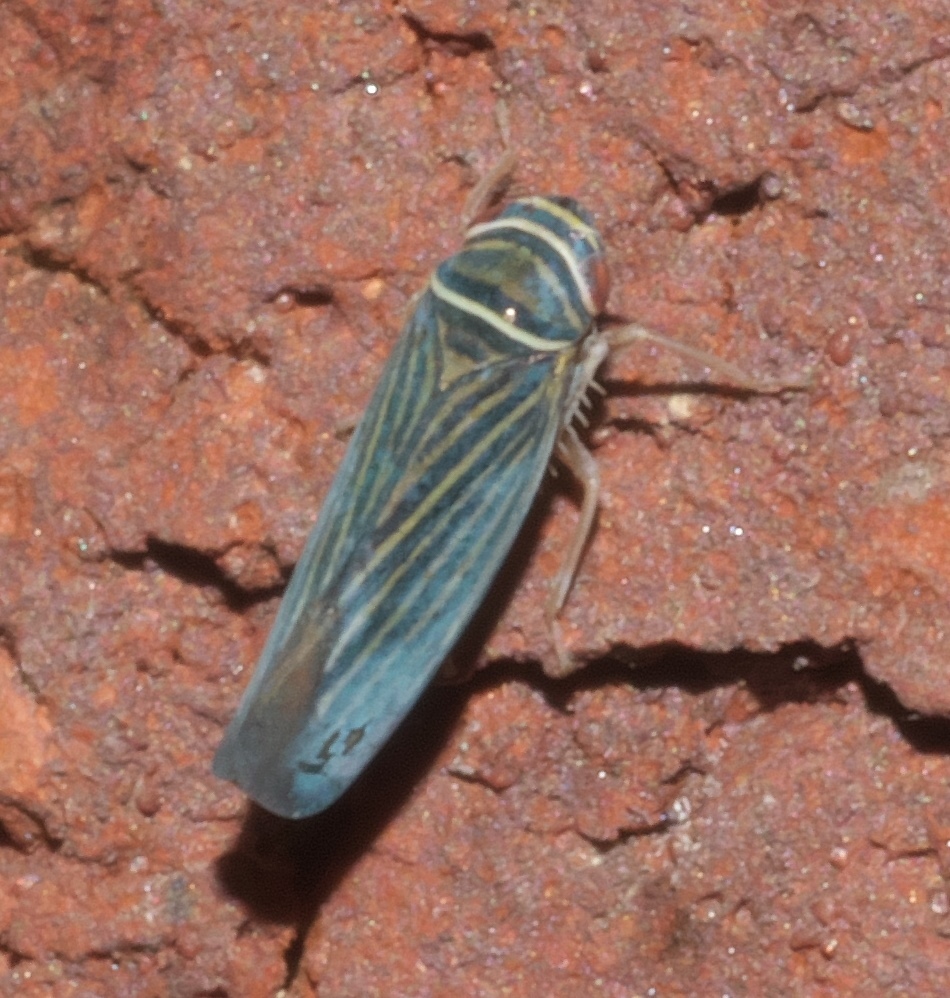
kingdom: Animalia
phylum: Arthropoda
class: Insecta
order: Hemiptera
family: Cicadellidae
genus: Tylozygus
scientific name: Tylozygus bifidus
